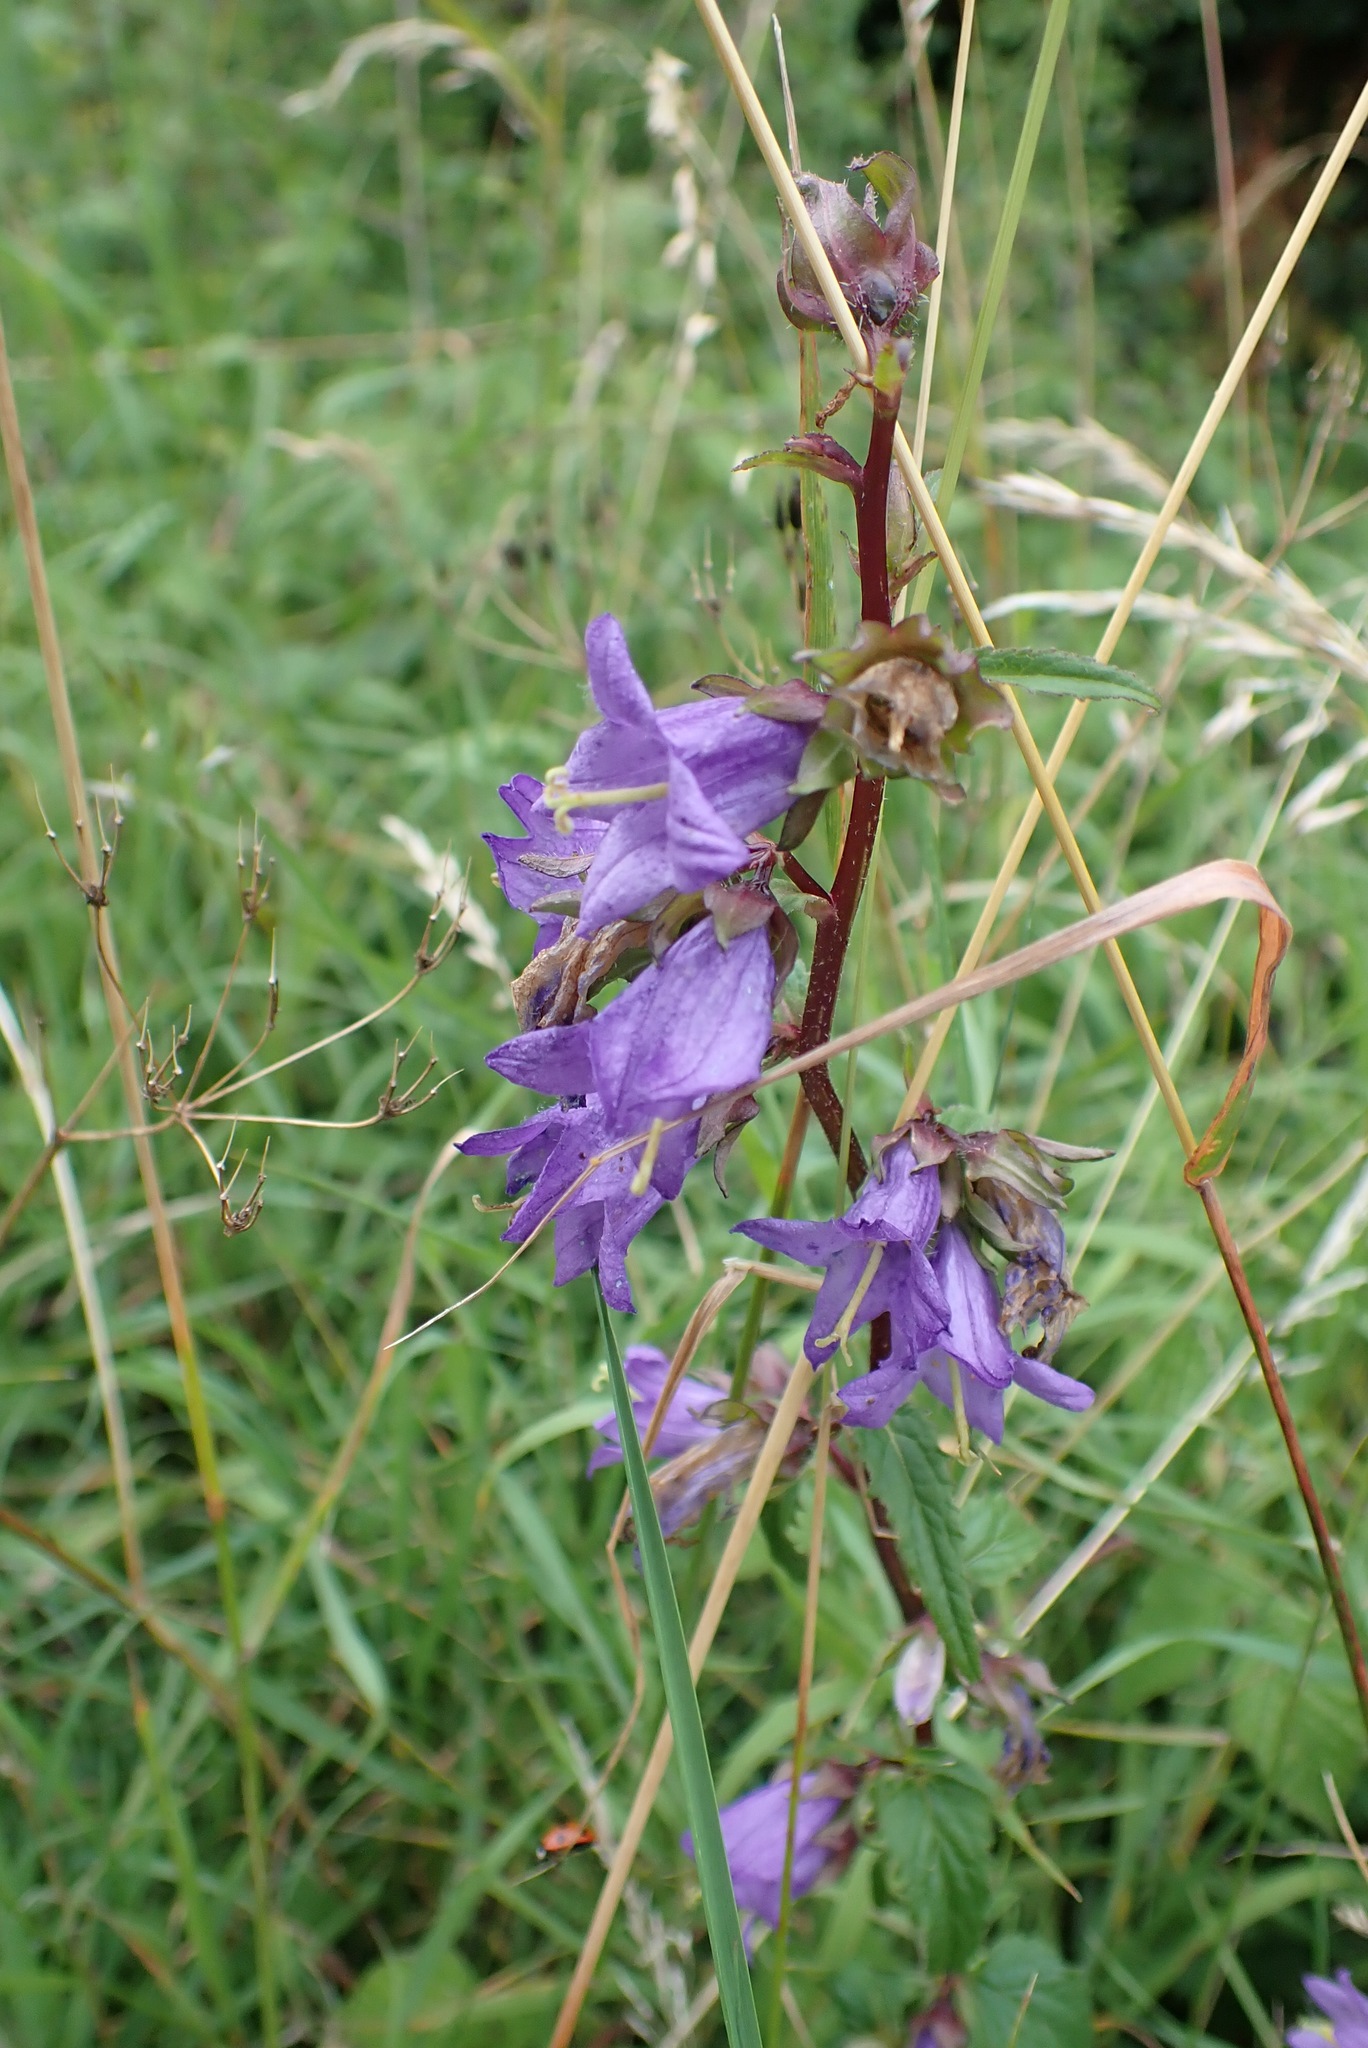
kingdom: Plantae
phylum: Tracheophyta
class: Magnoliopsida
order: Asterales
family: Campanulaceae
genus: Campanula
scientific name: Campanula trachelium
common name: Nettle-leaved bellflower
